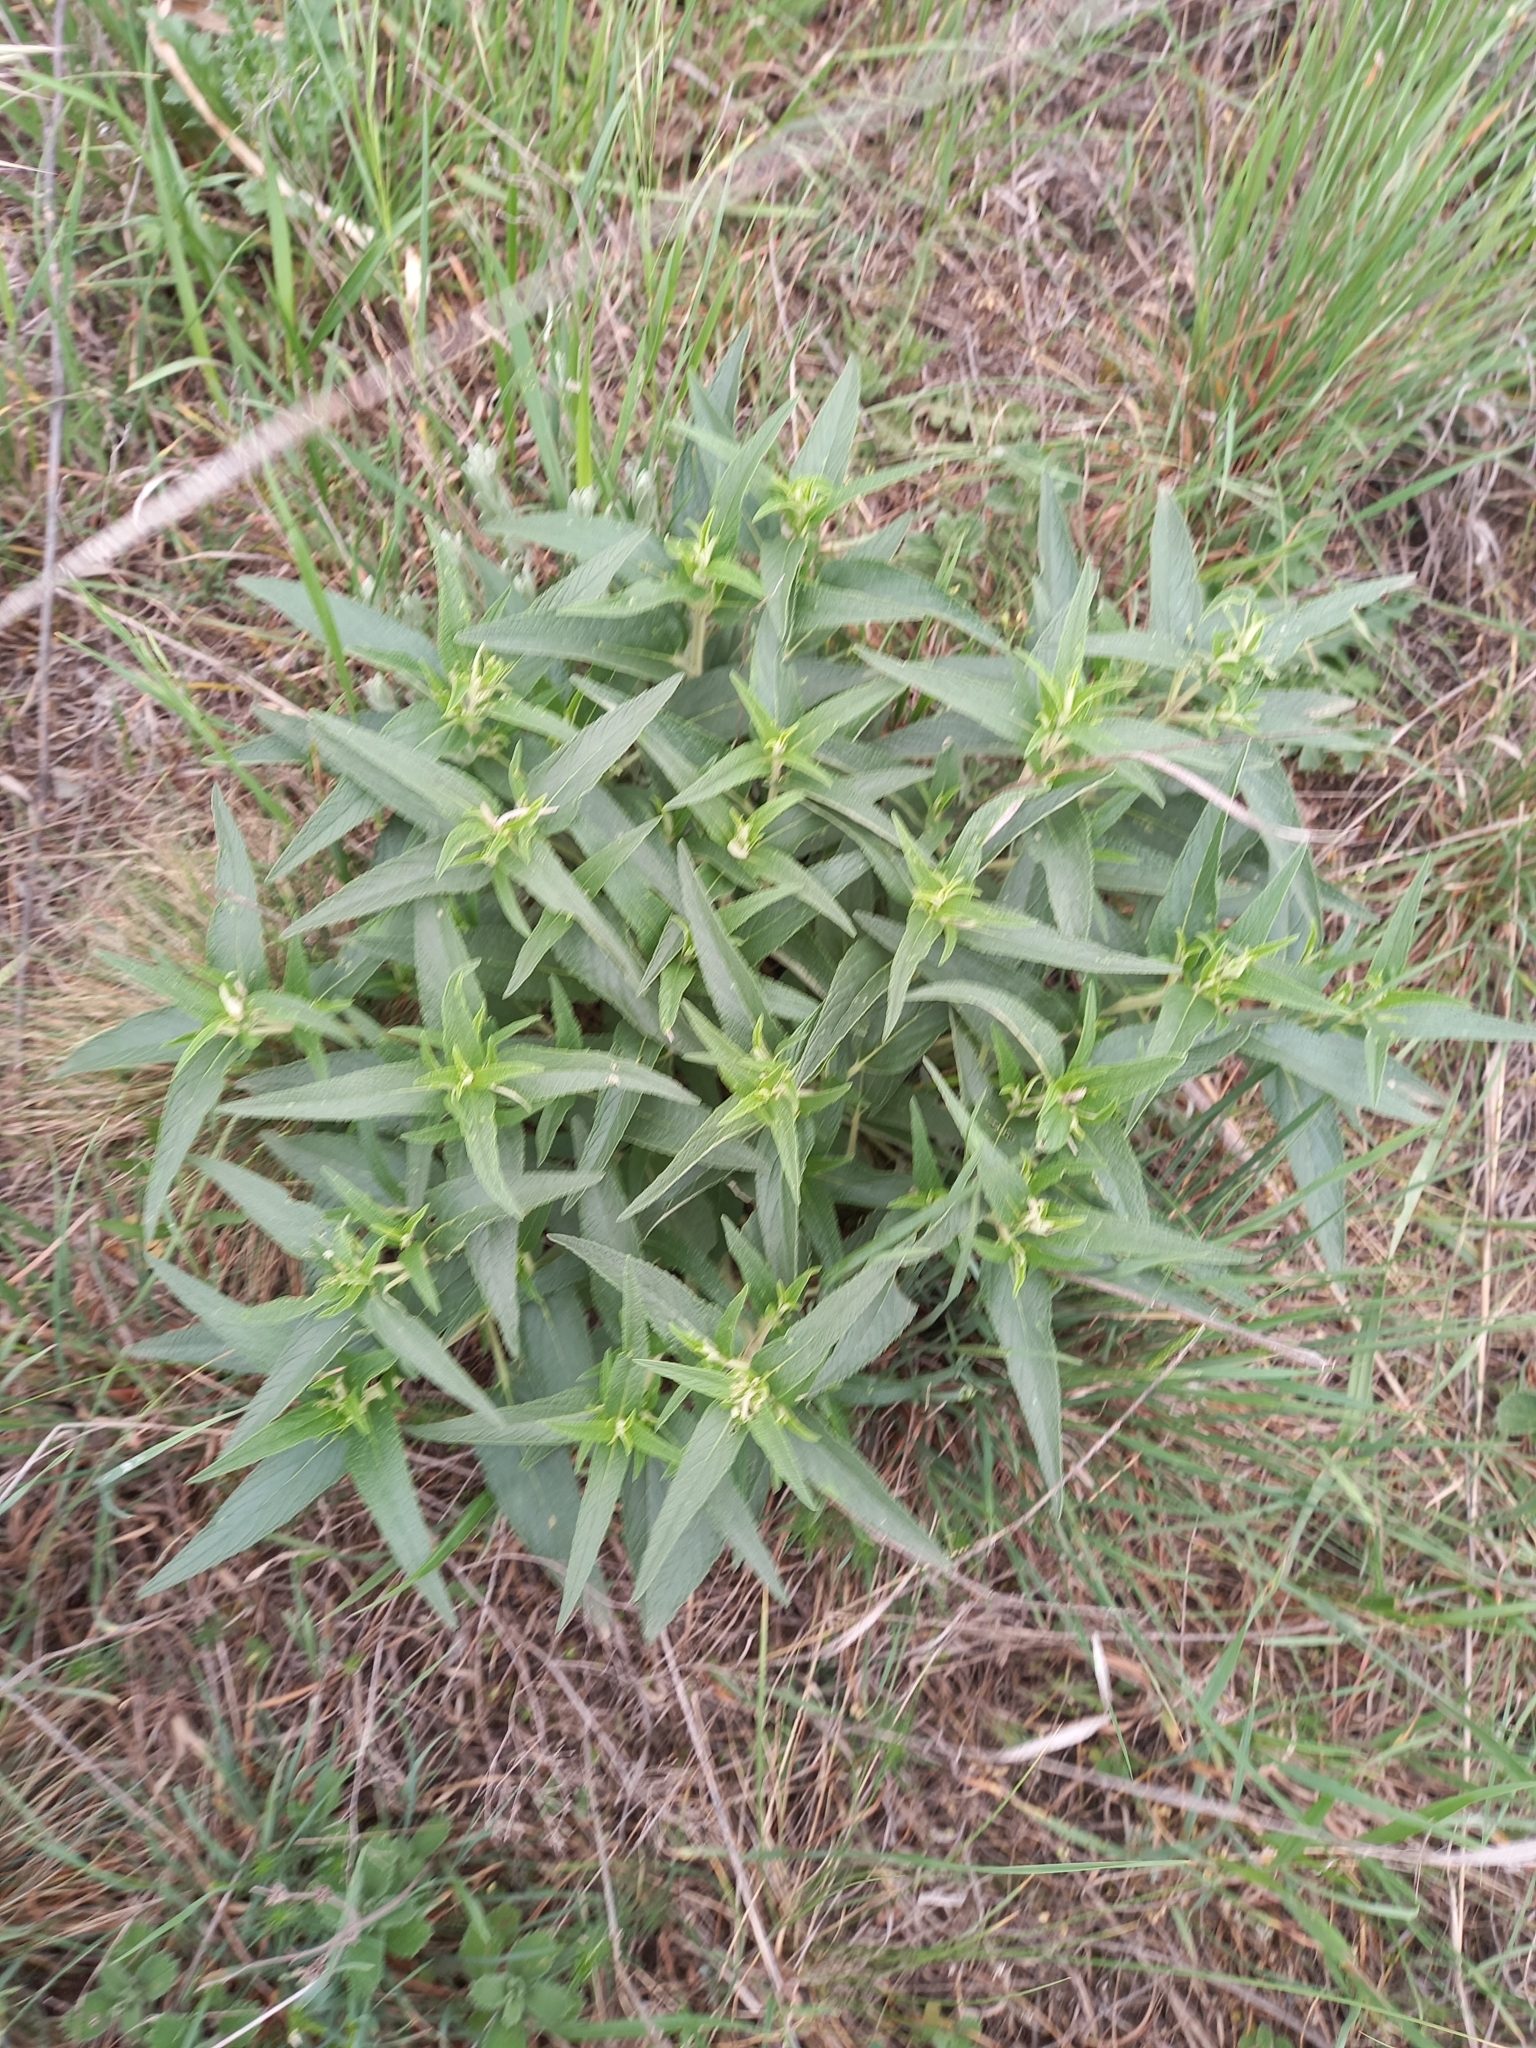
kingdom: Plantae
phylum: Tracheophyta
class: Magnoliopsida
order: Lamiales
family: Lamiaceae
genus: Phlomis
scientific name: Phlomis herba-venti
